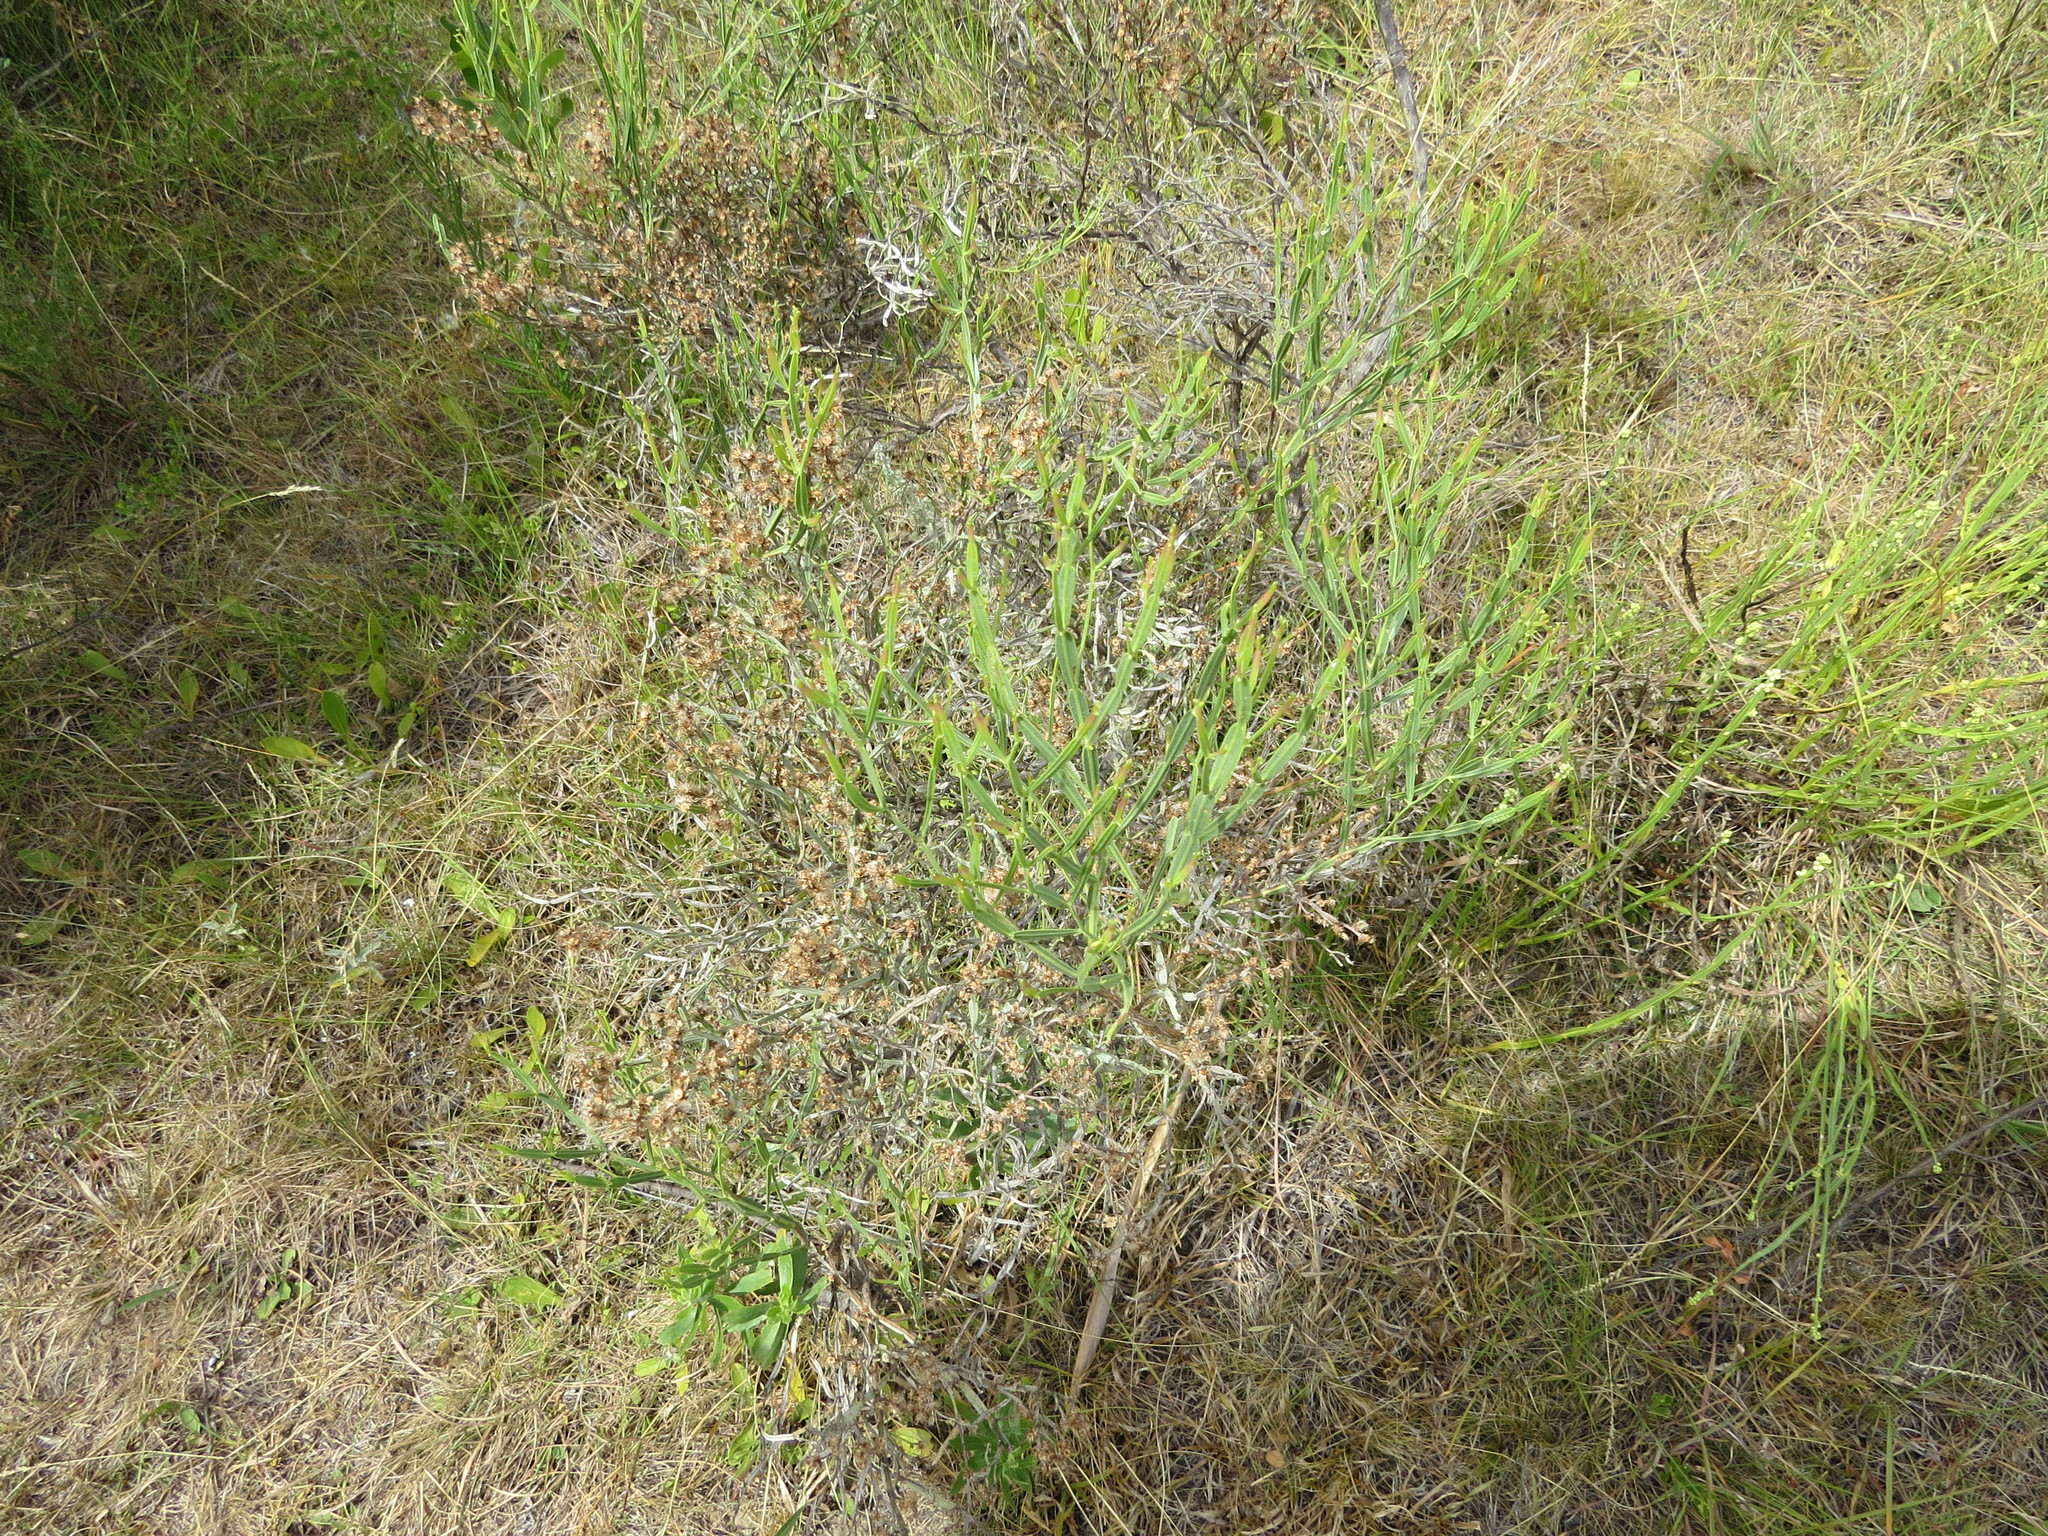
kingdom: Plantae
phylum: Tracheophyta
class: Magnoliopsida
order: Asterales
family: Asteraceae
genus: Baccharis
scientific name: Baccharis articulata
